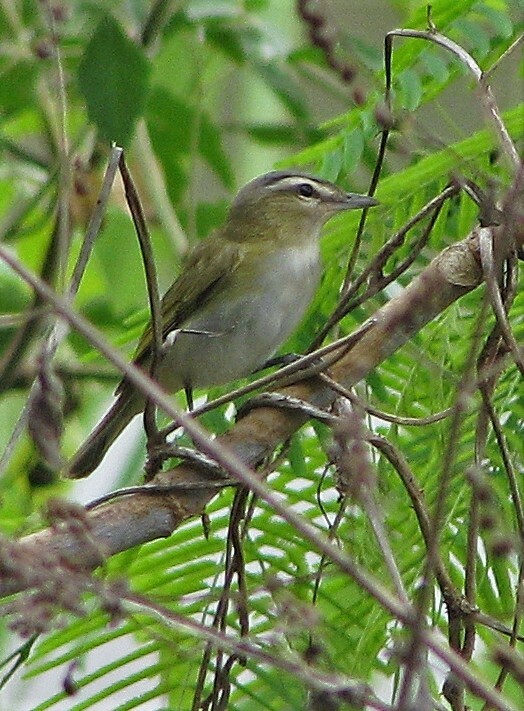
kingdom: Animalia
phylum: Chordata
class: Aves
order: Passeriformes
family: Vireonidae
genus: Vireo
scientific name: Vireo olivaceus
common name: Red-eyed vireo
